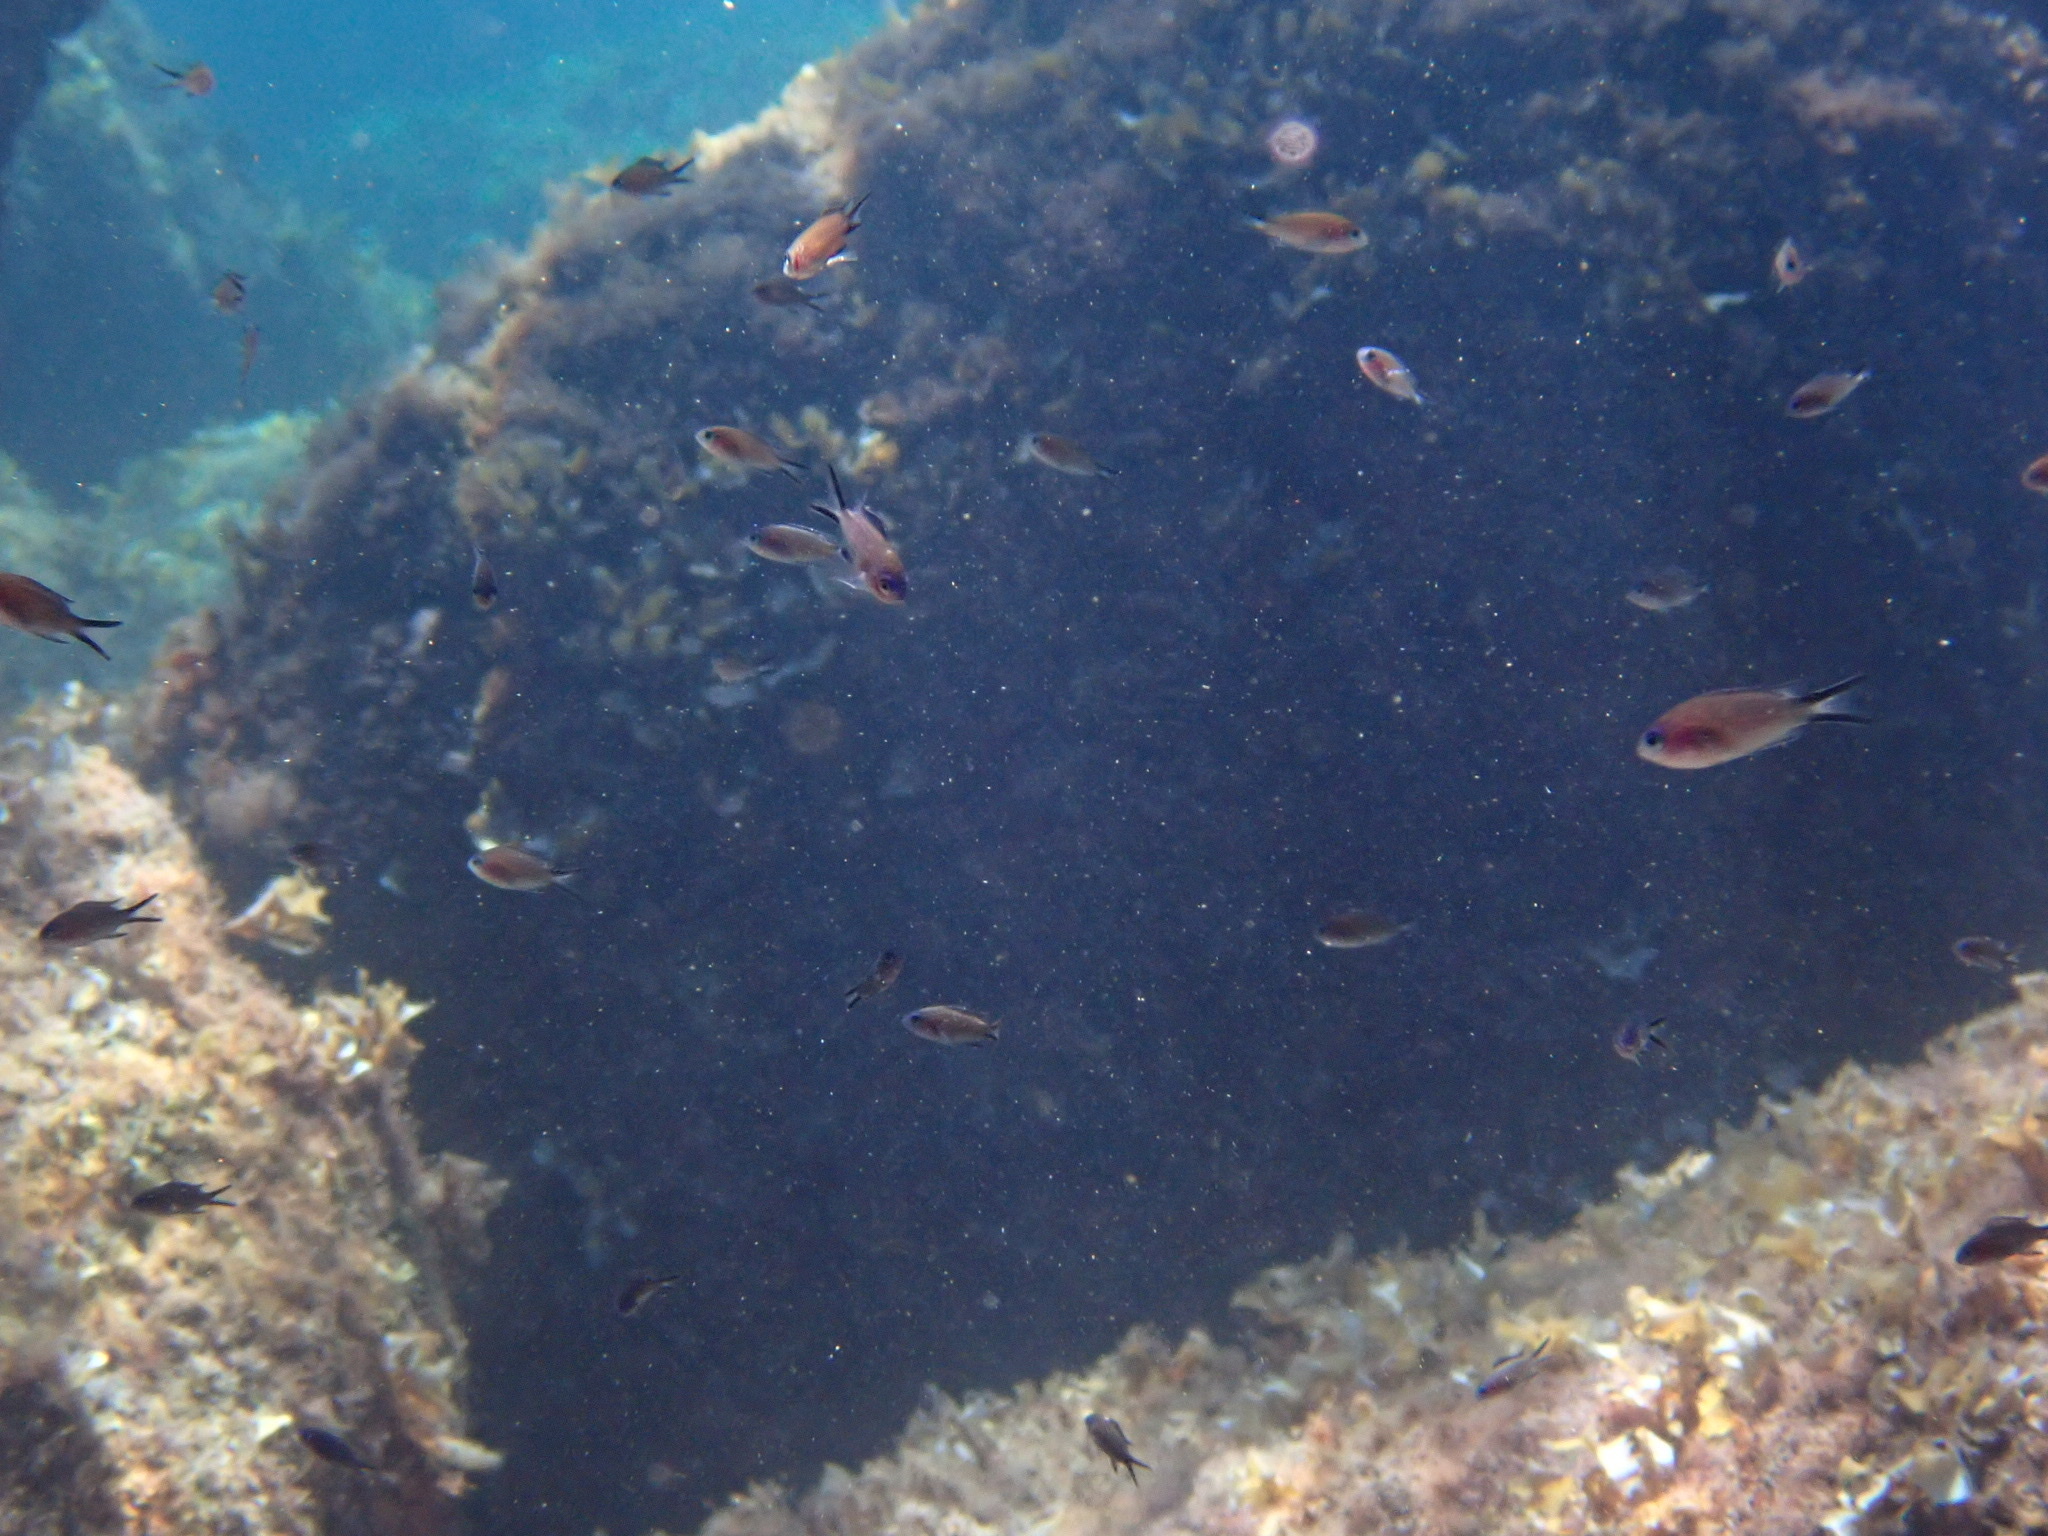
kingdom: Animalia
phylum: Chordata
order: Perciformes
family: Pomacentridae
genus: Chromis
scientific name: Chromis chromis
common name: Damselfish
